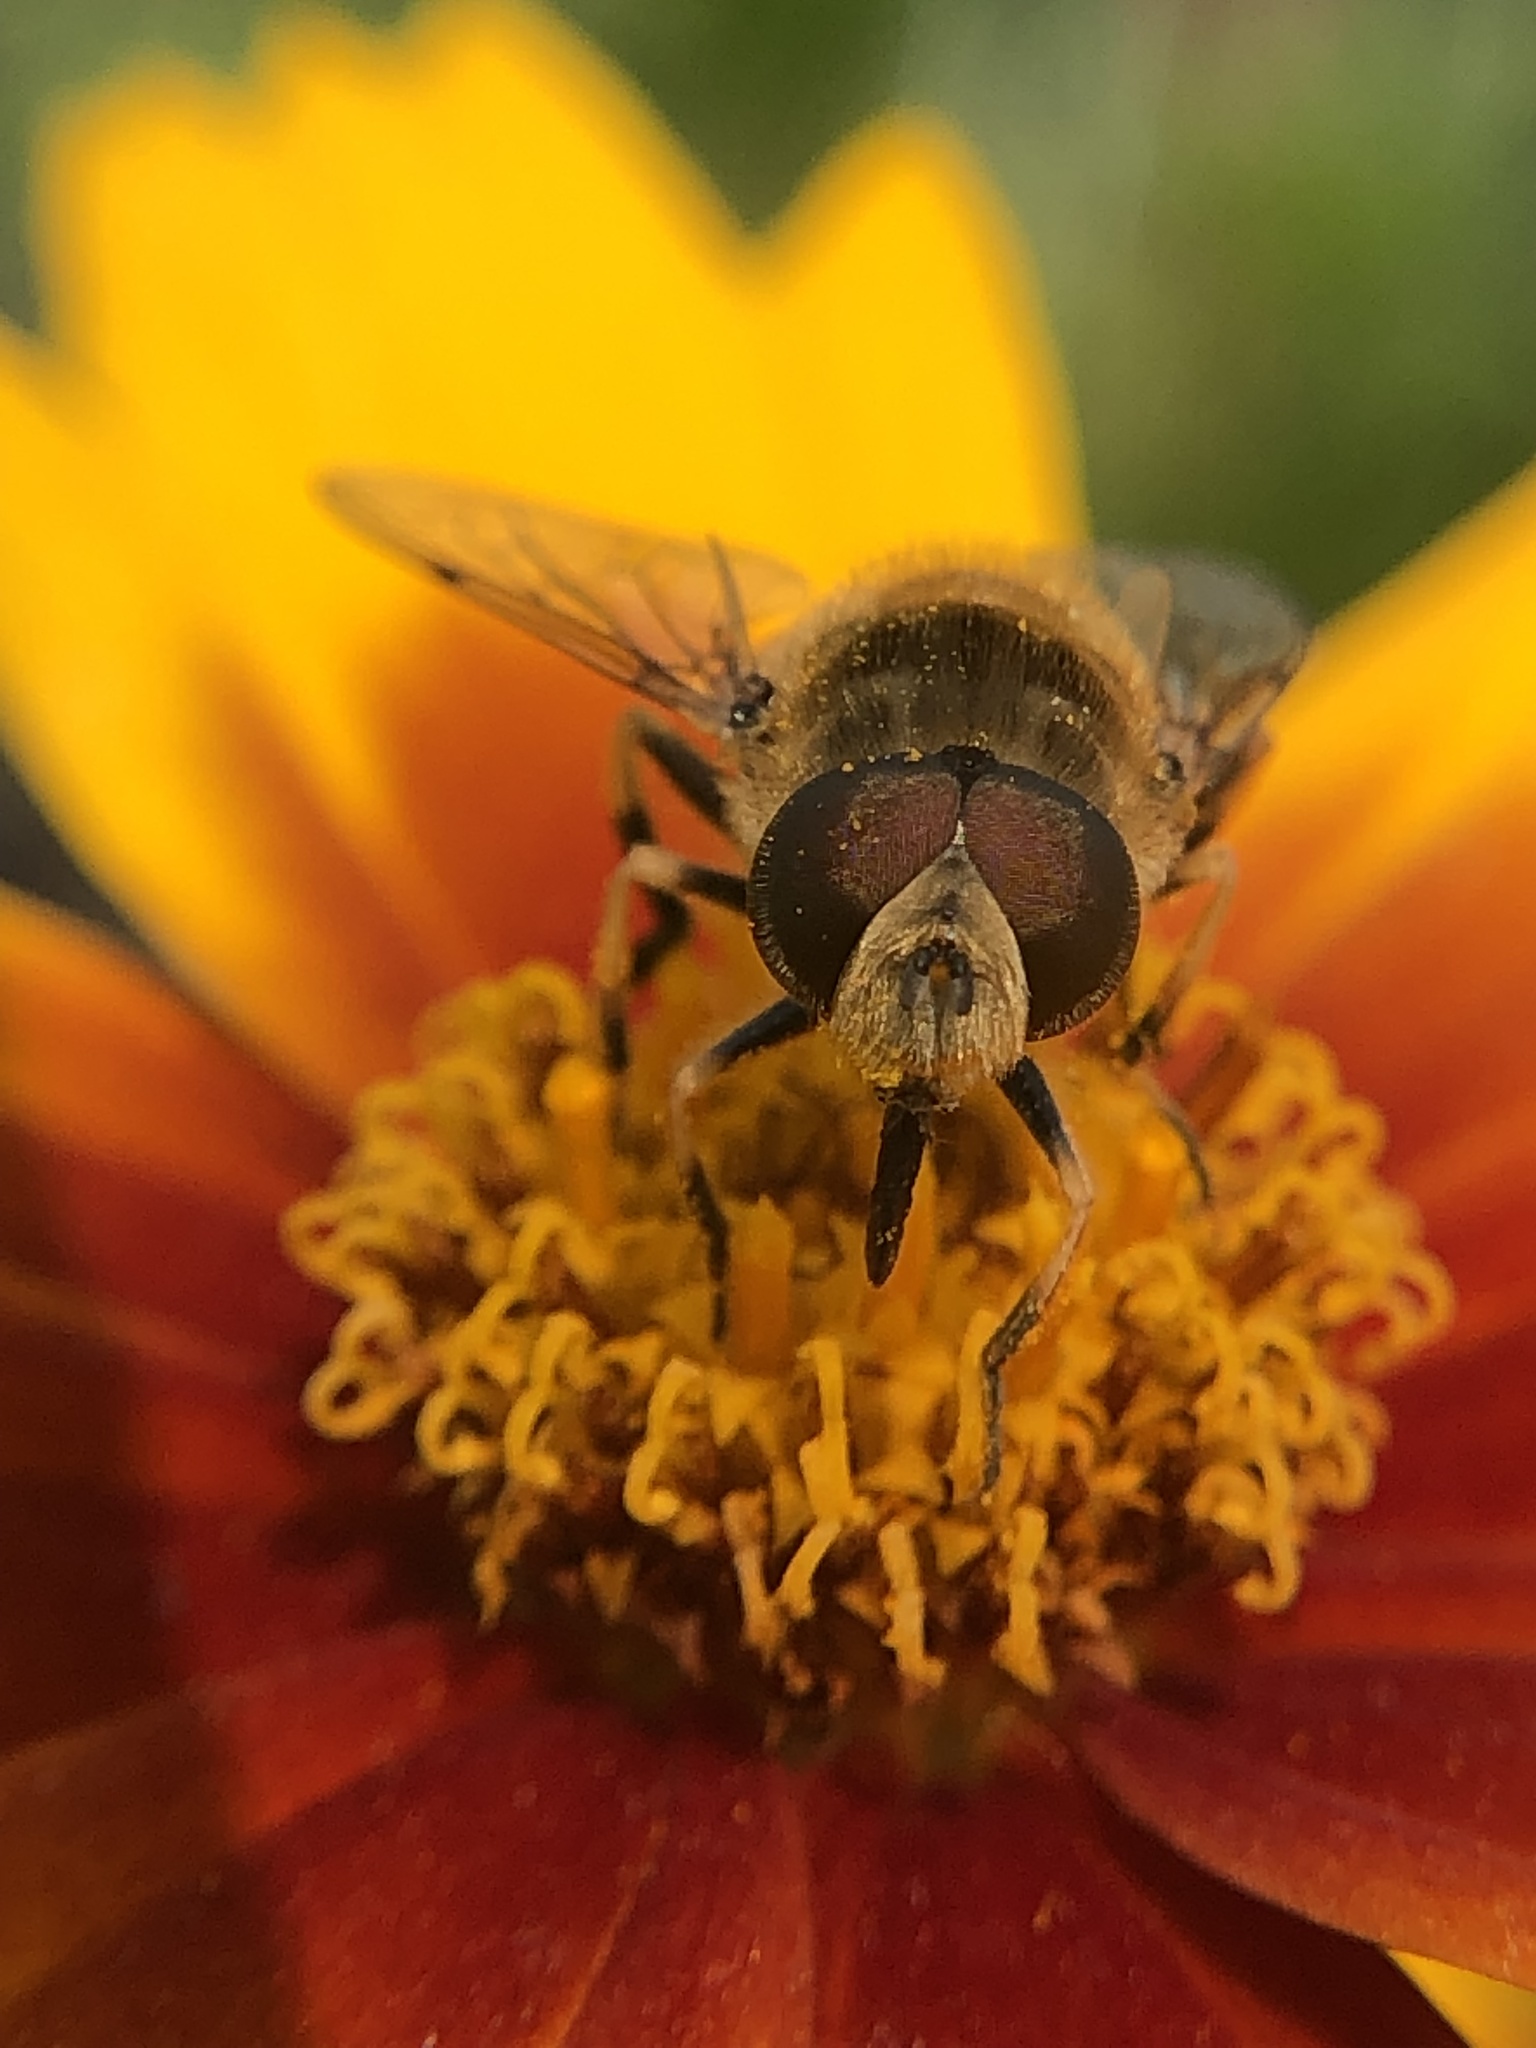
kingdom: Animalia
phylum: Arthropoda
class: Insecta
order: Diptera
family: Syrphidae
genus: Eristalis
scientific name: Eristalis arbustorum
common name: Hover fly
